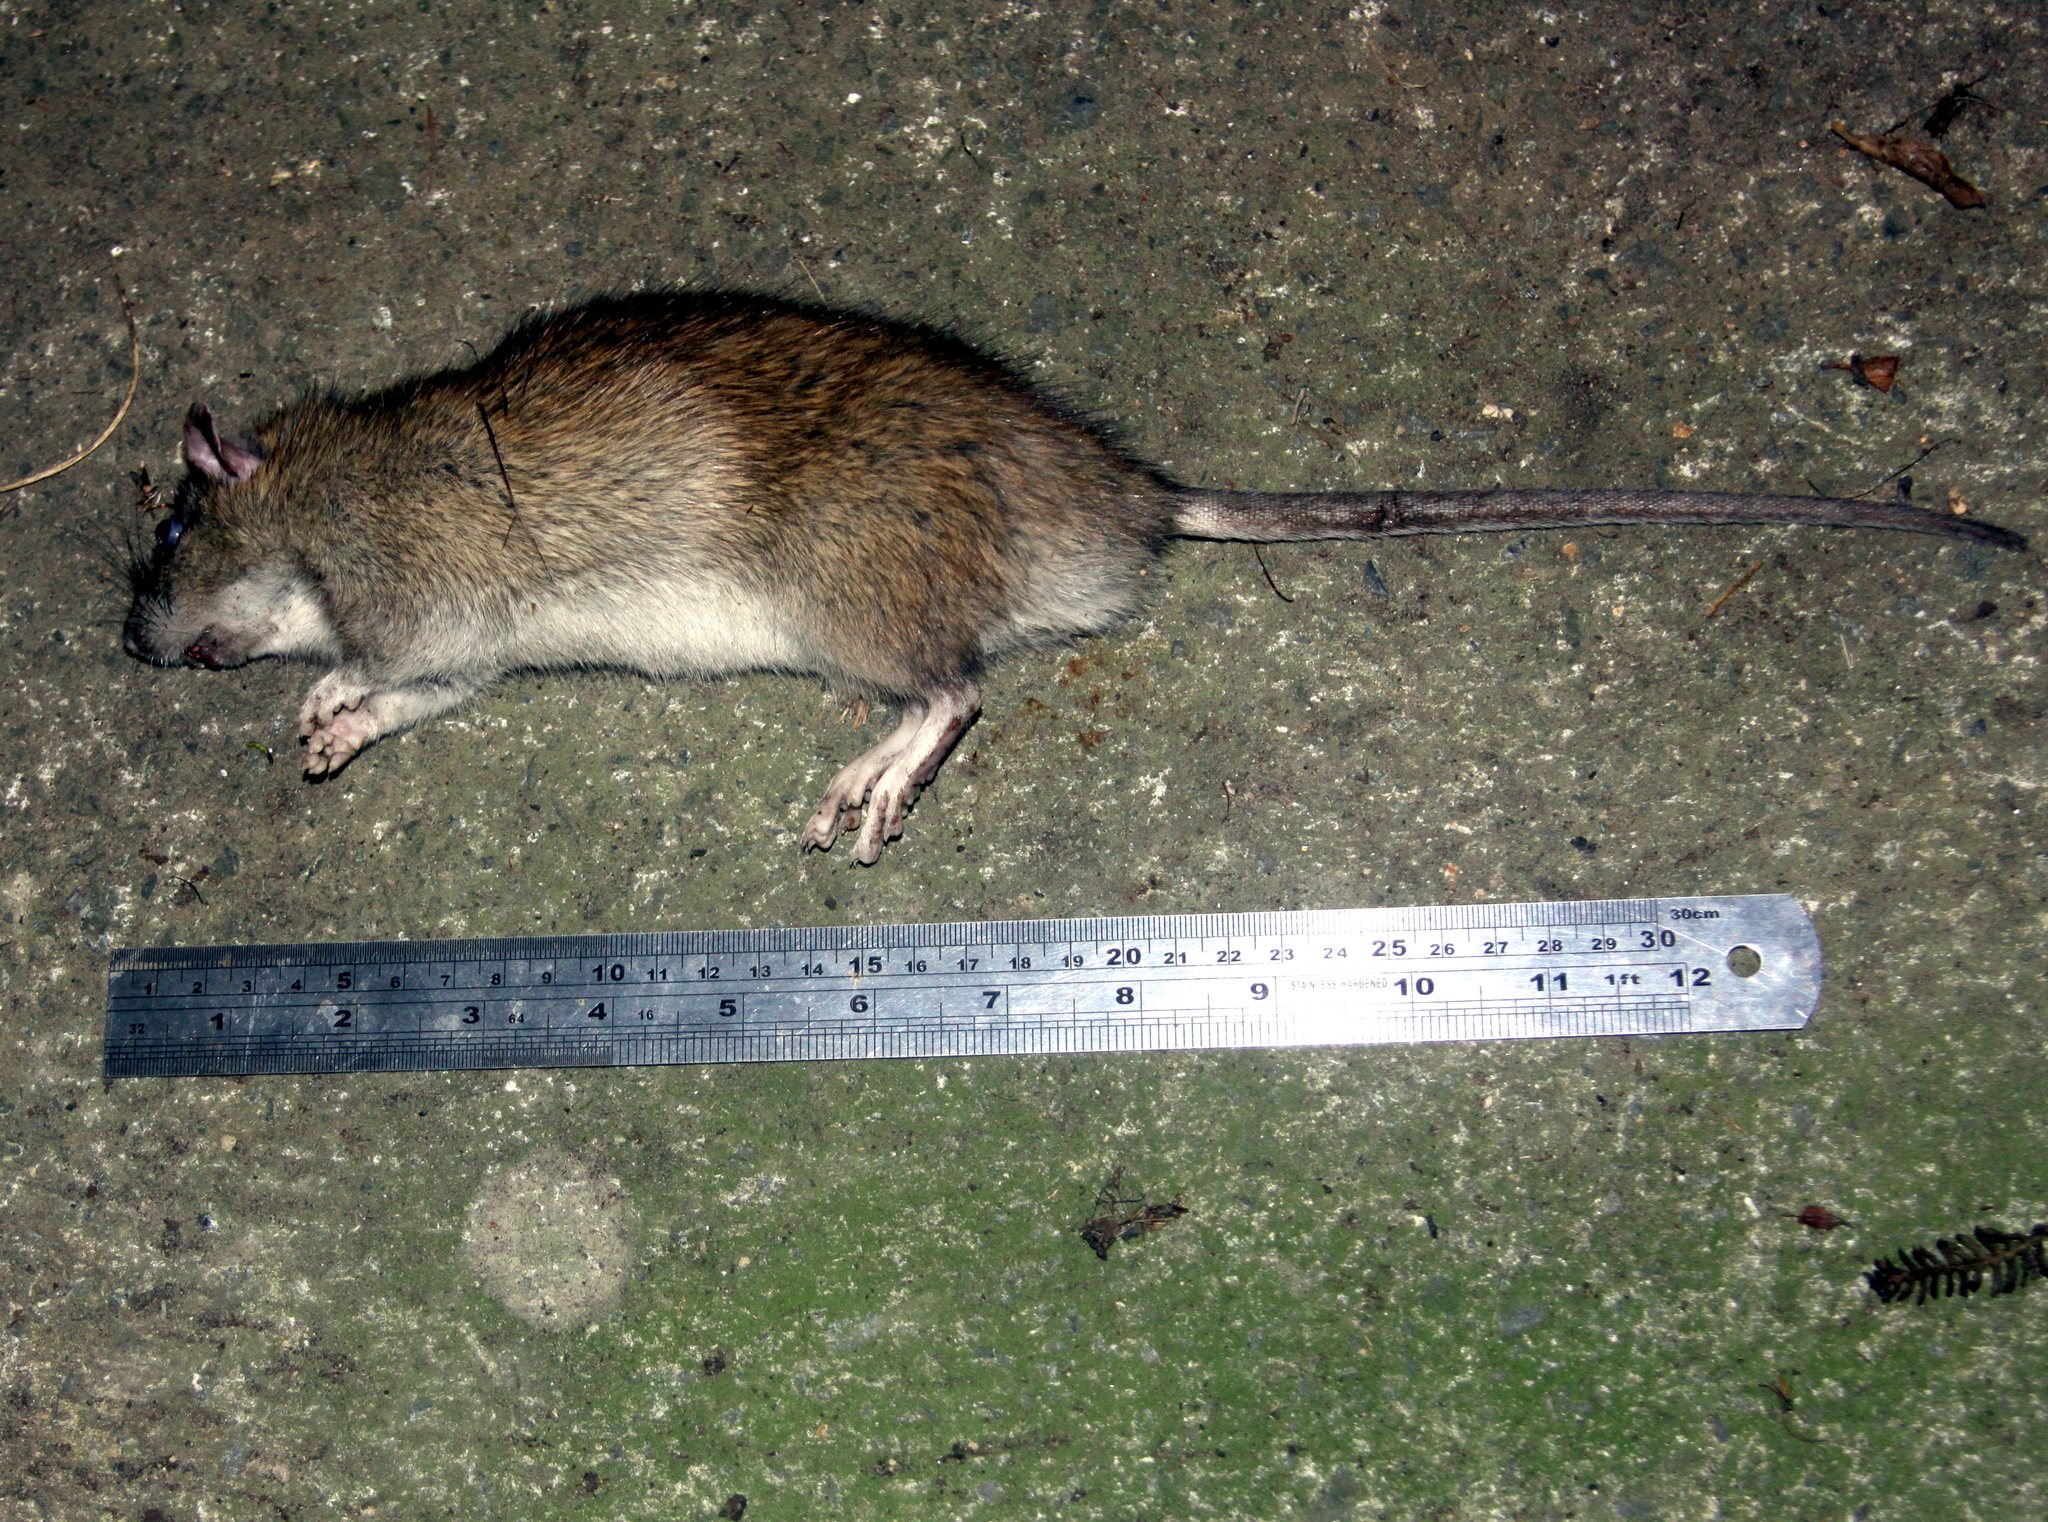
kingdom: Animalia
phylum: Chordata
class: Mammalia
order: Rodentia
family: Muridae
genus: Rattus
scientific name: Rattus norvegicus
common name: Brown rat
